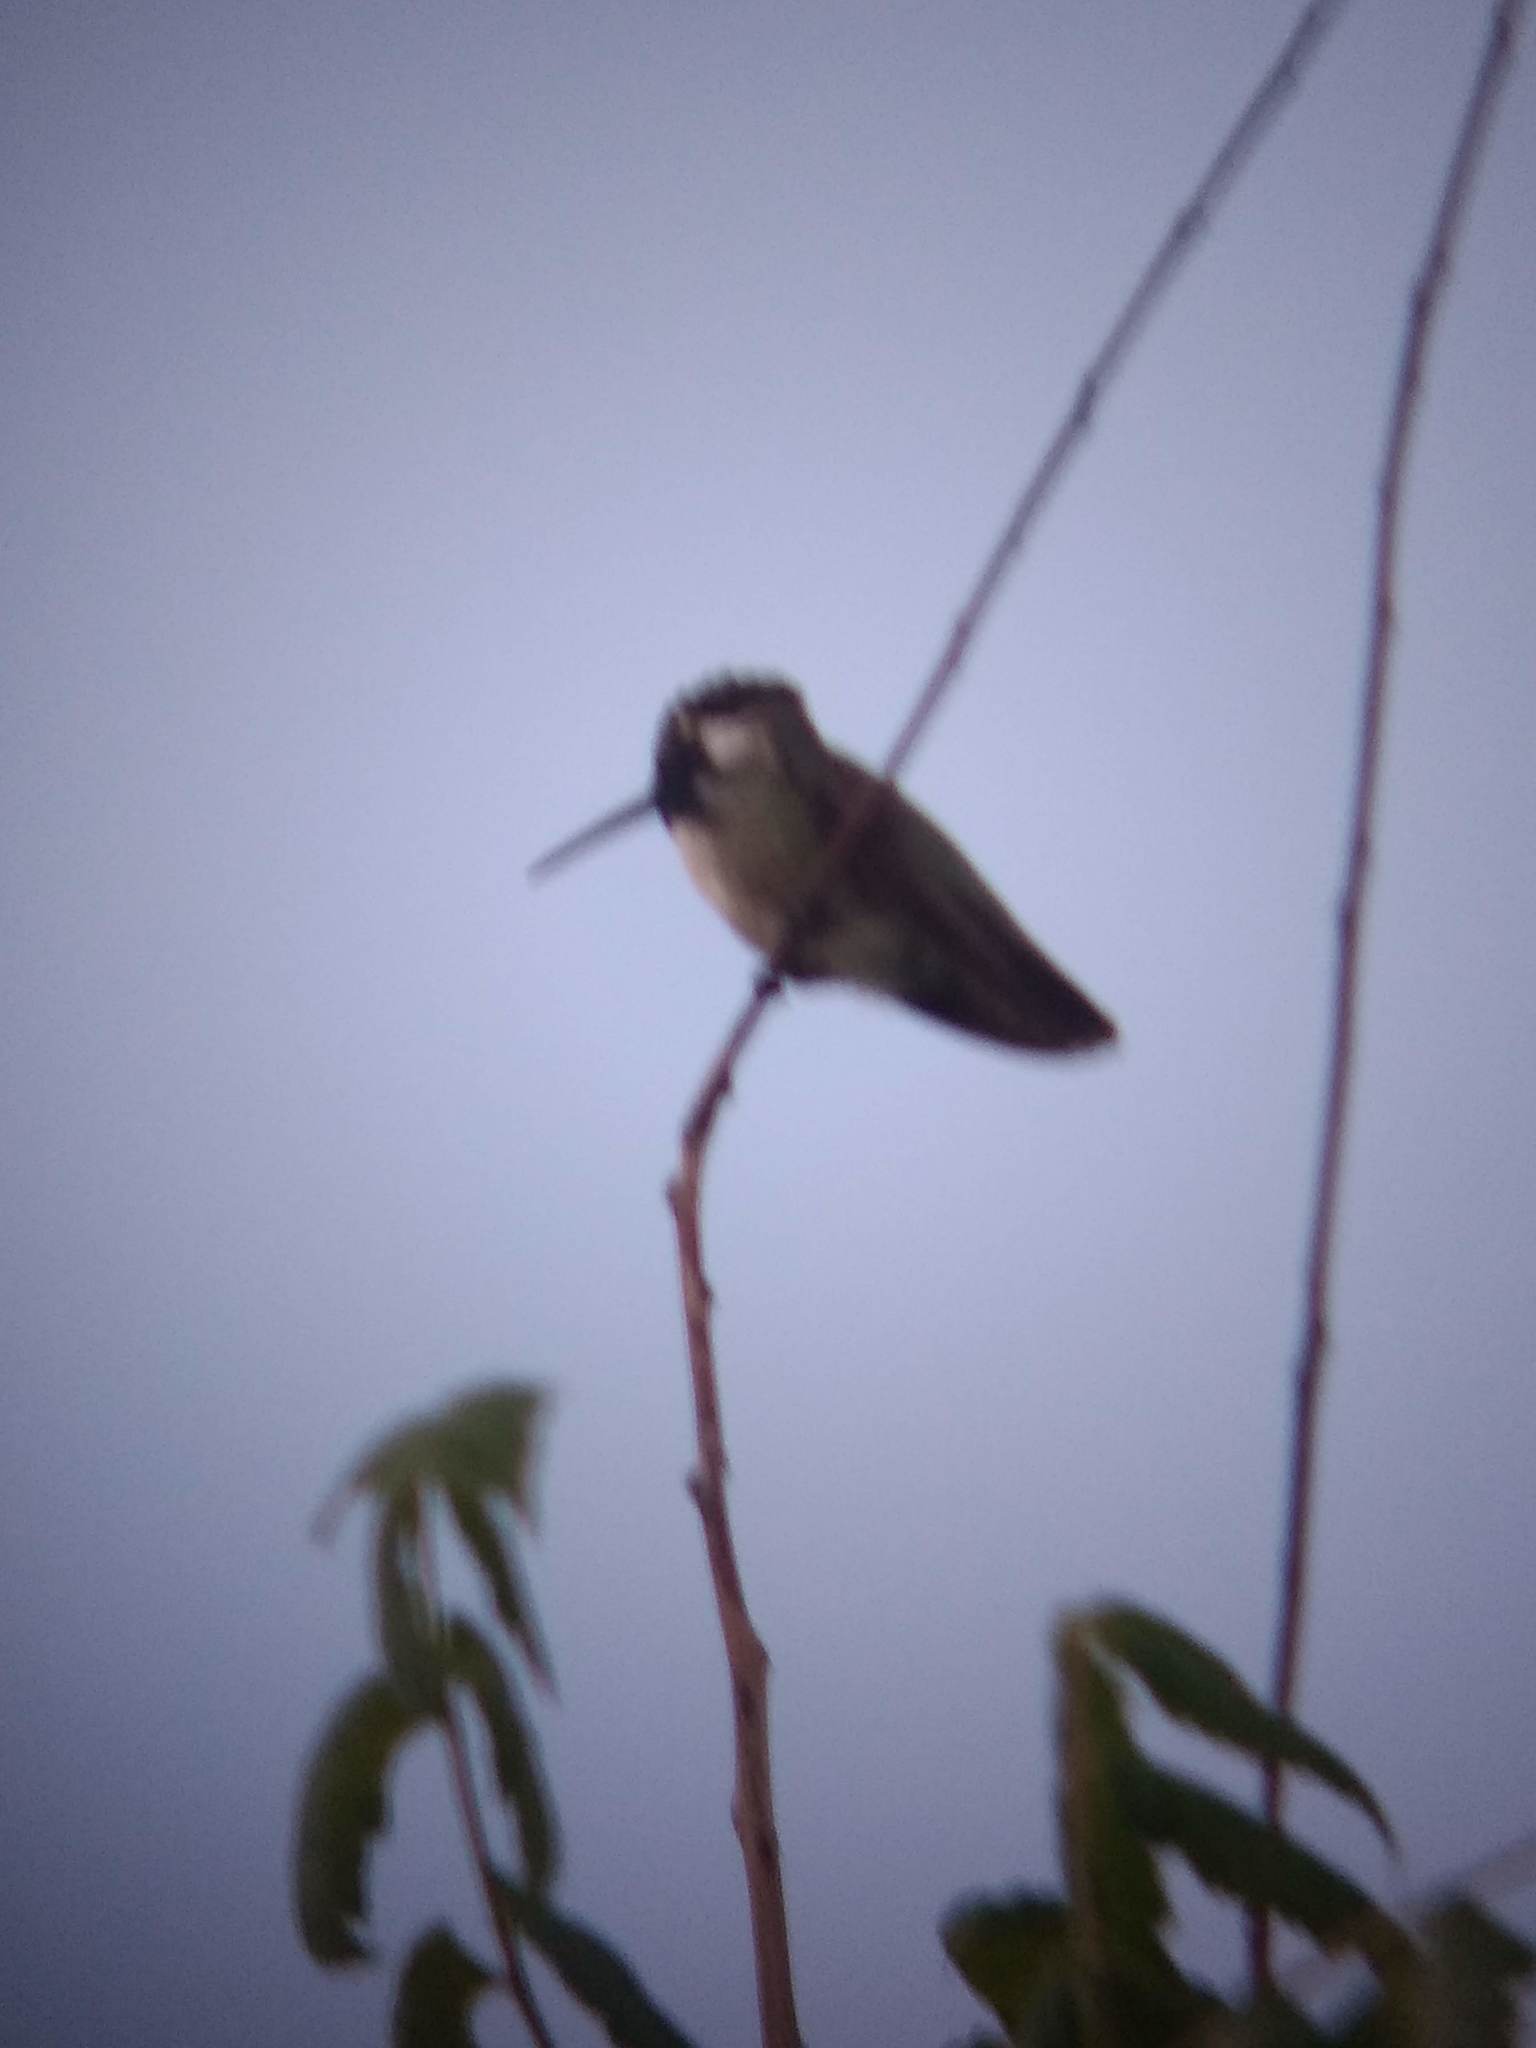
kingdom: Animalia
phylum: Chordata
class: Aves
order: Apodiformes
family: Trochilidae
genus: Calypte
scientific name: Calypte costae
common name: Costa's hummingbird
